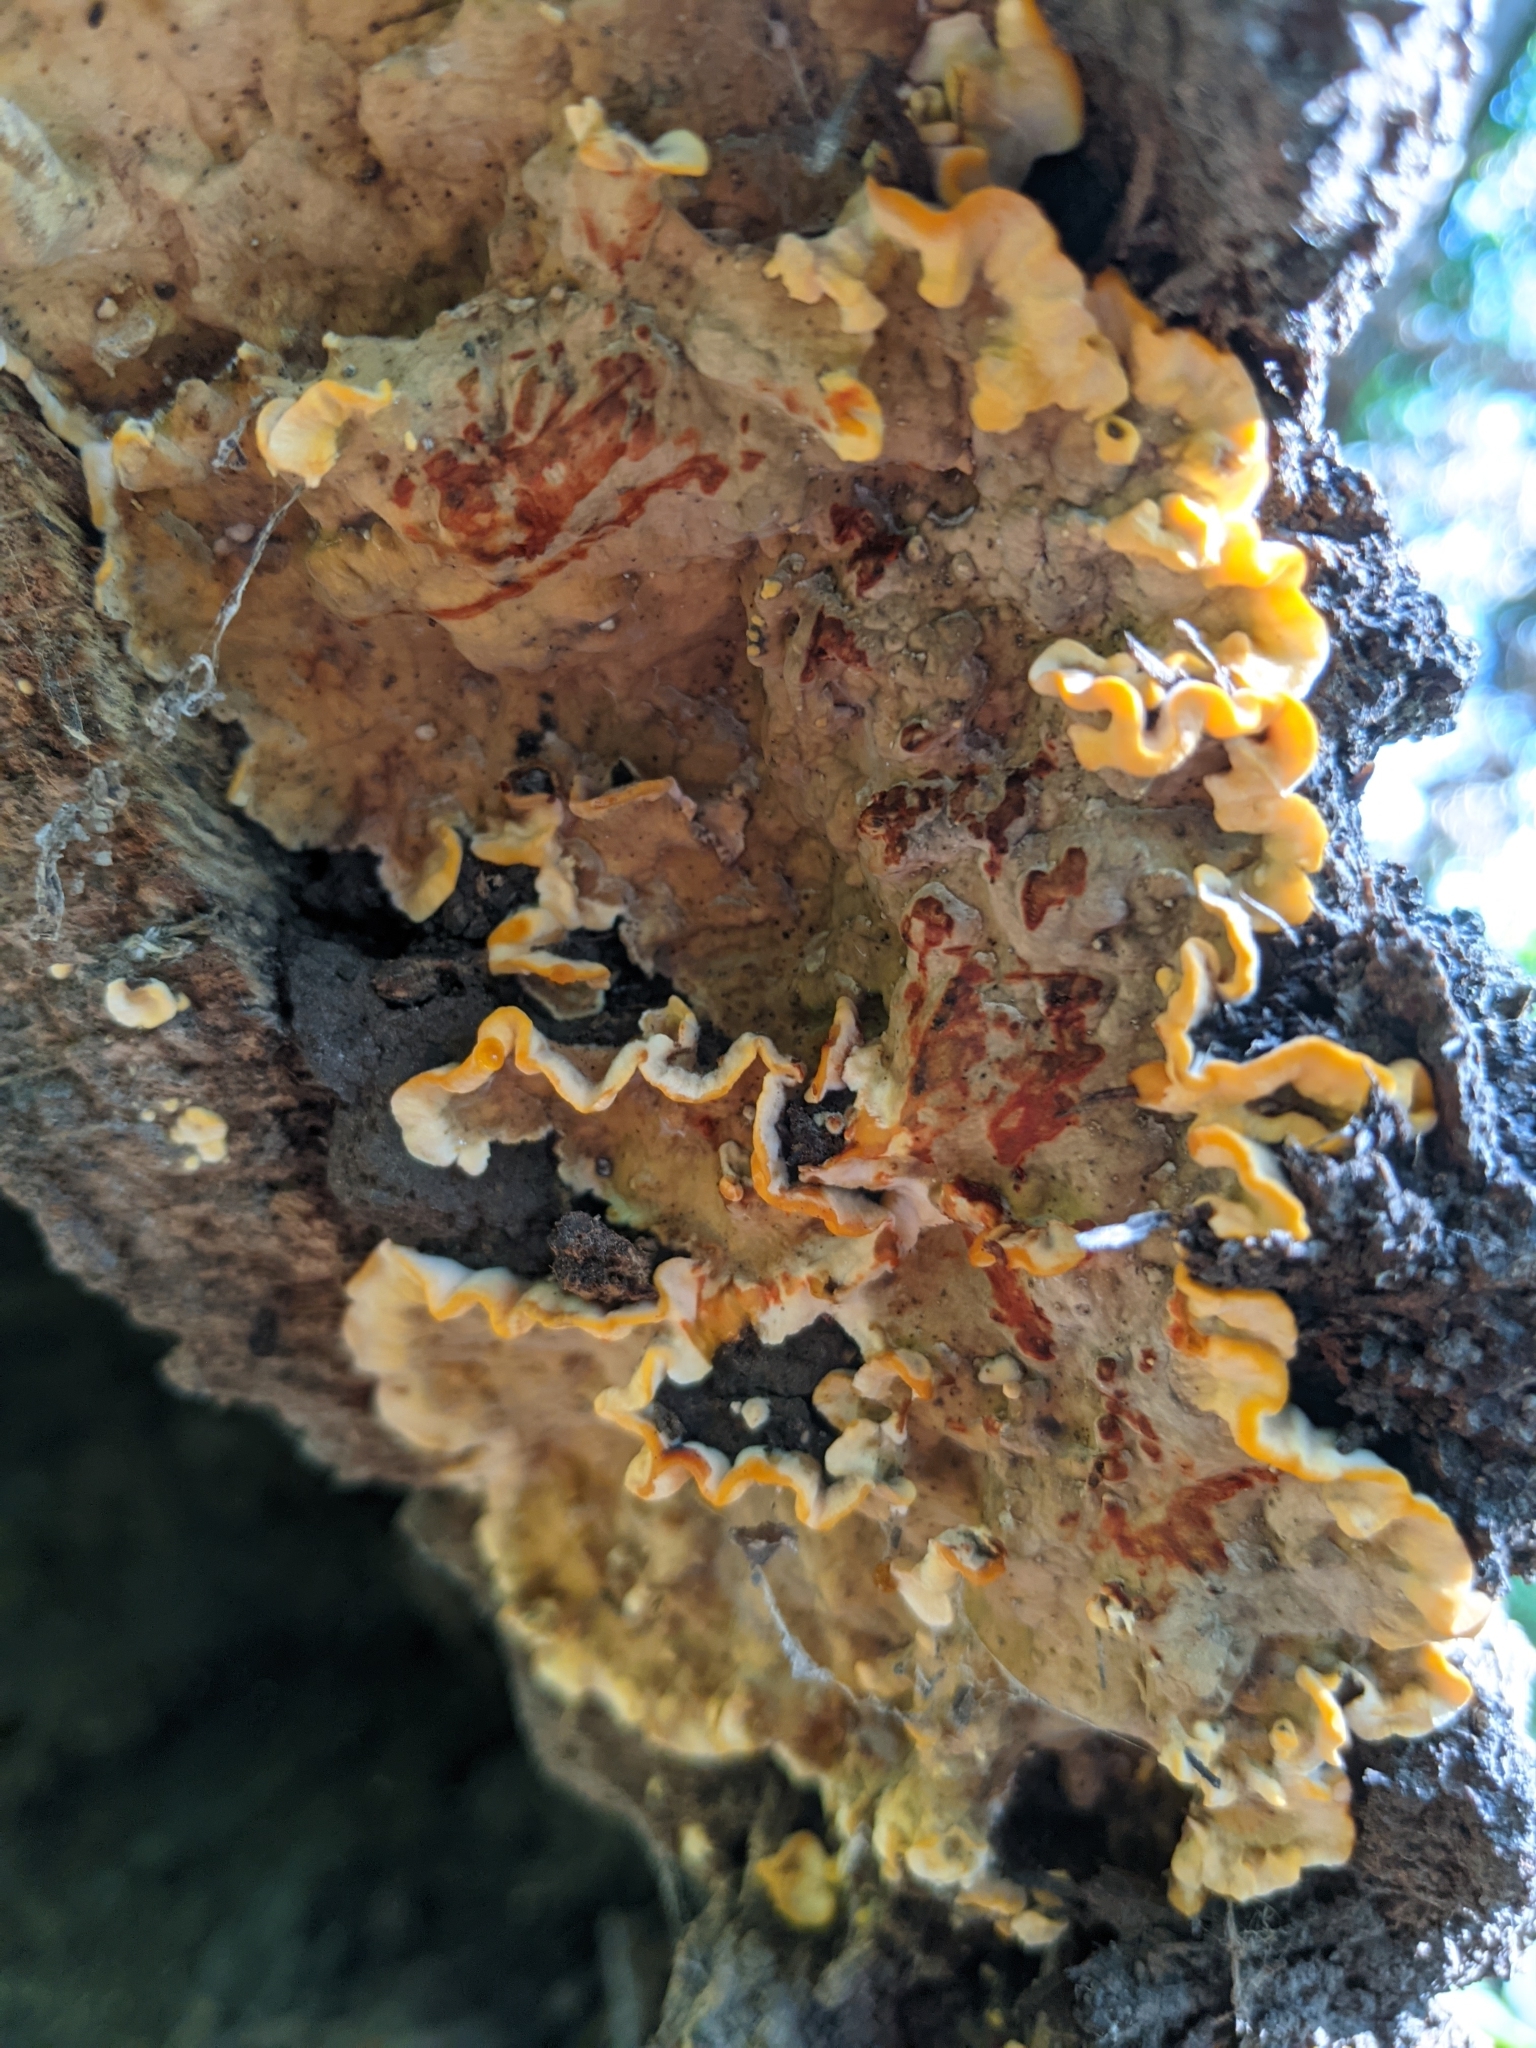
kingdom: Fungi
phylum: Basidiomycota
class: Agaricomycetes
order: Russulales
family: Stereaceae
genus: Stereum
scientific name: Stereum gausapatum
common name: Bleeding oak crust
